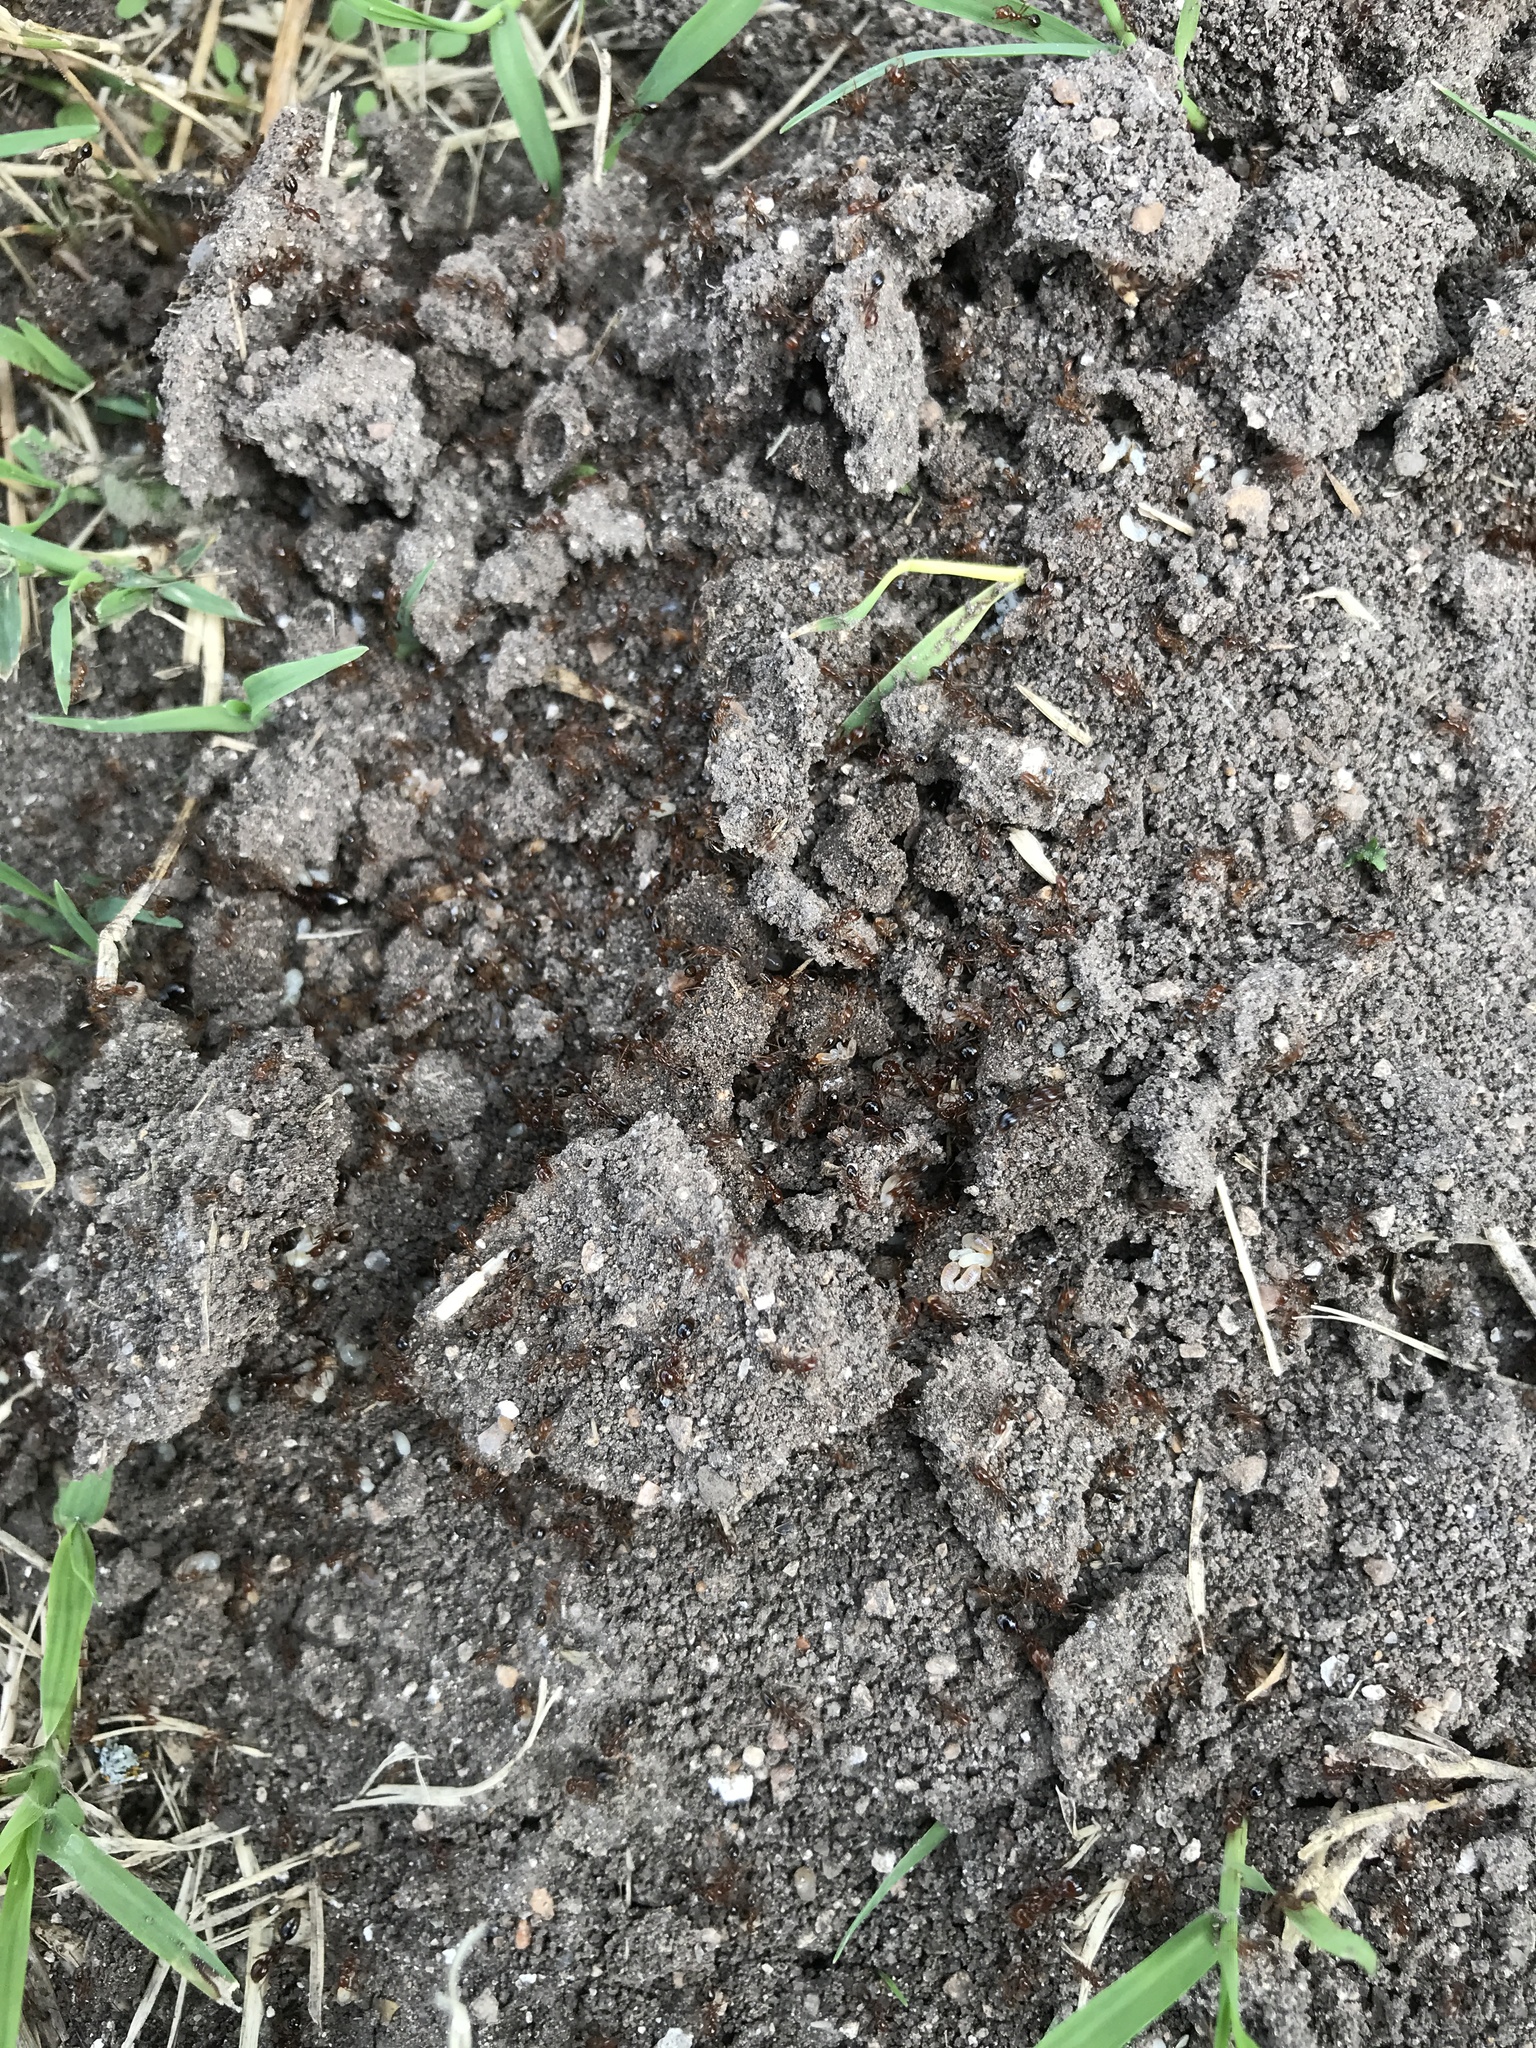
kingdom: Animalia
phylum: Arthropoda
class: Insecta
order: Hymenoptera
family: Formicidae
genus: Solenopsis
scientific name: Solenopsis invicta
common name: Red imported fire ant
